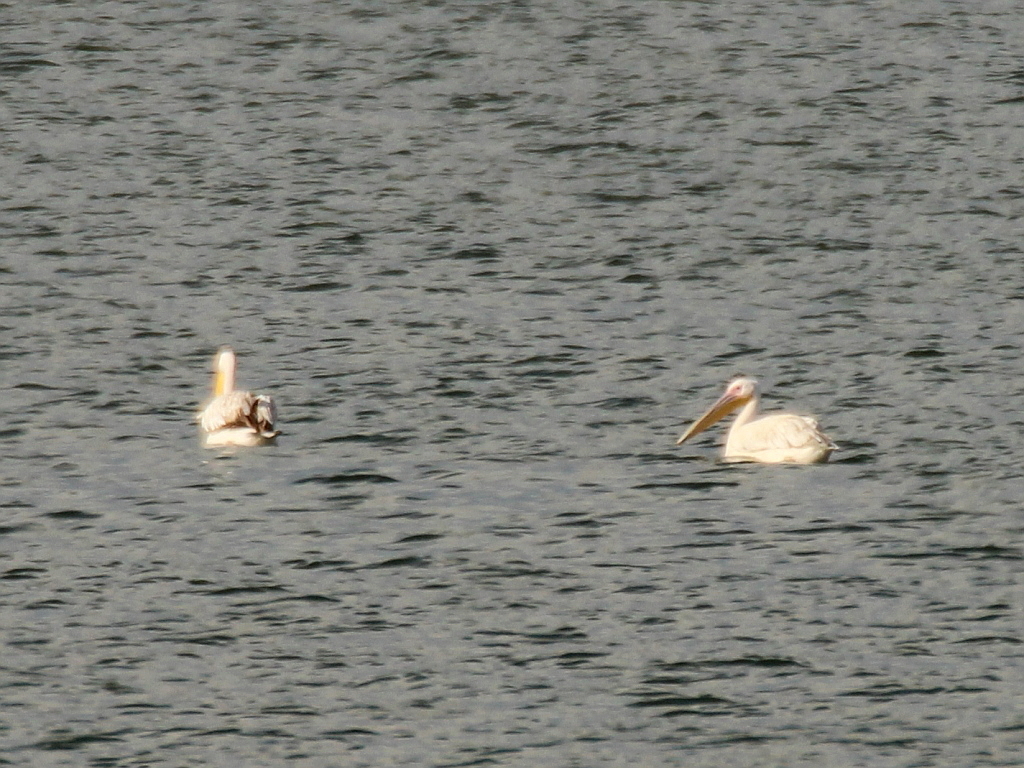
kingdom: Animalia
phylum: Chordata
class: Aves
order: Pelecaniformes
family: Pelecanidae
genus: Pelecanus
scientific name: Pelecanus onocrotalus
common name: Great white pelican
